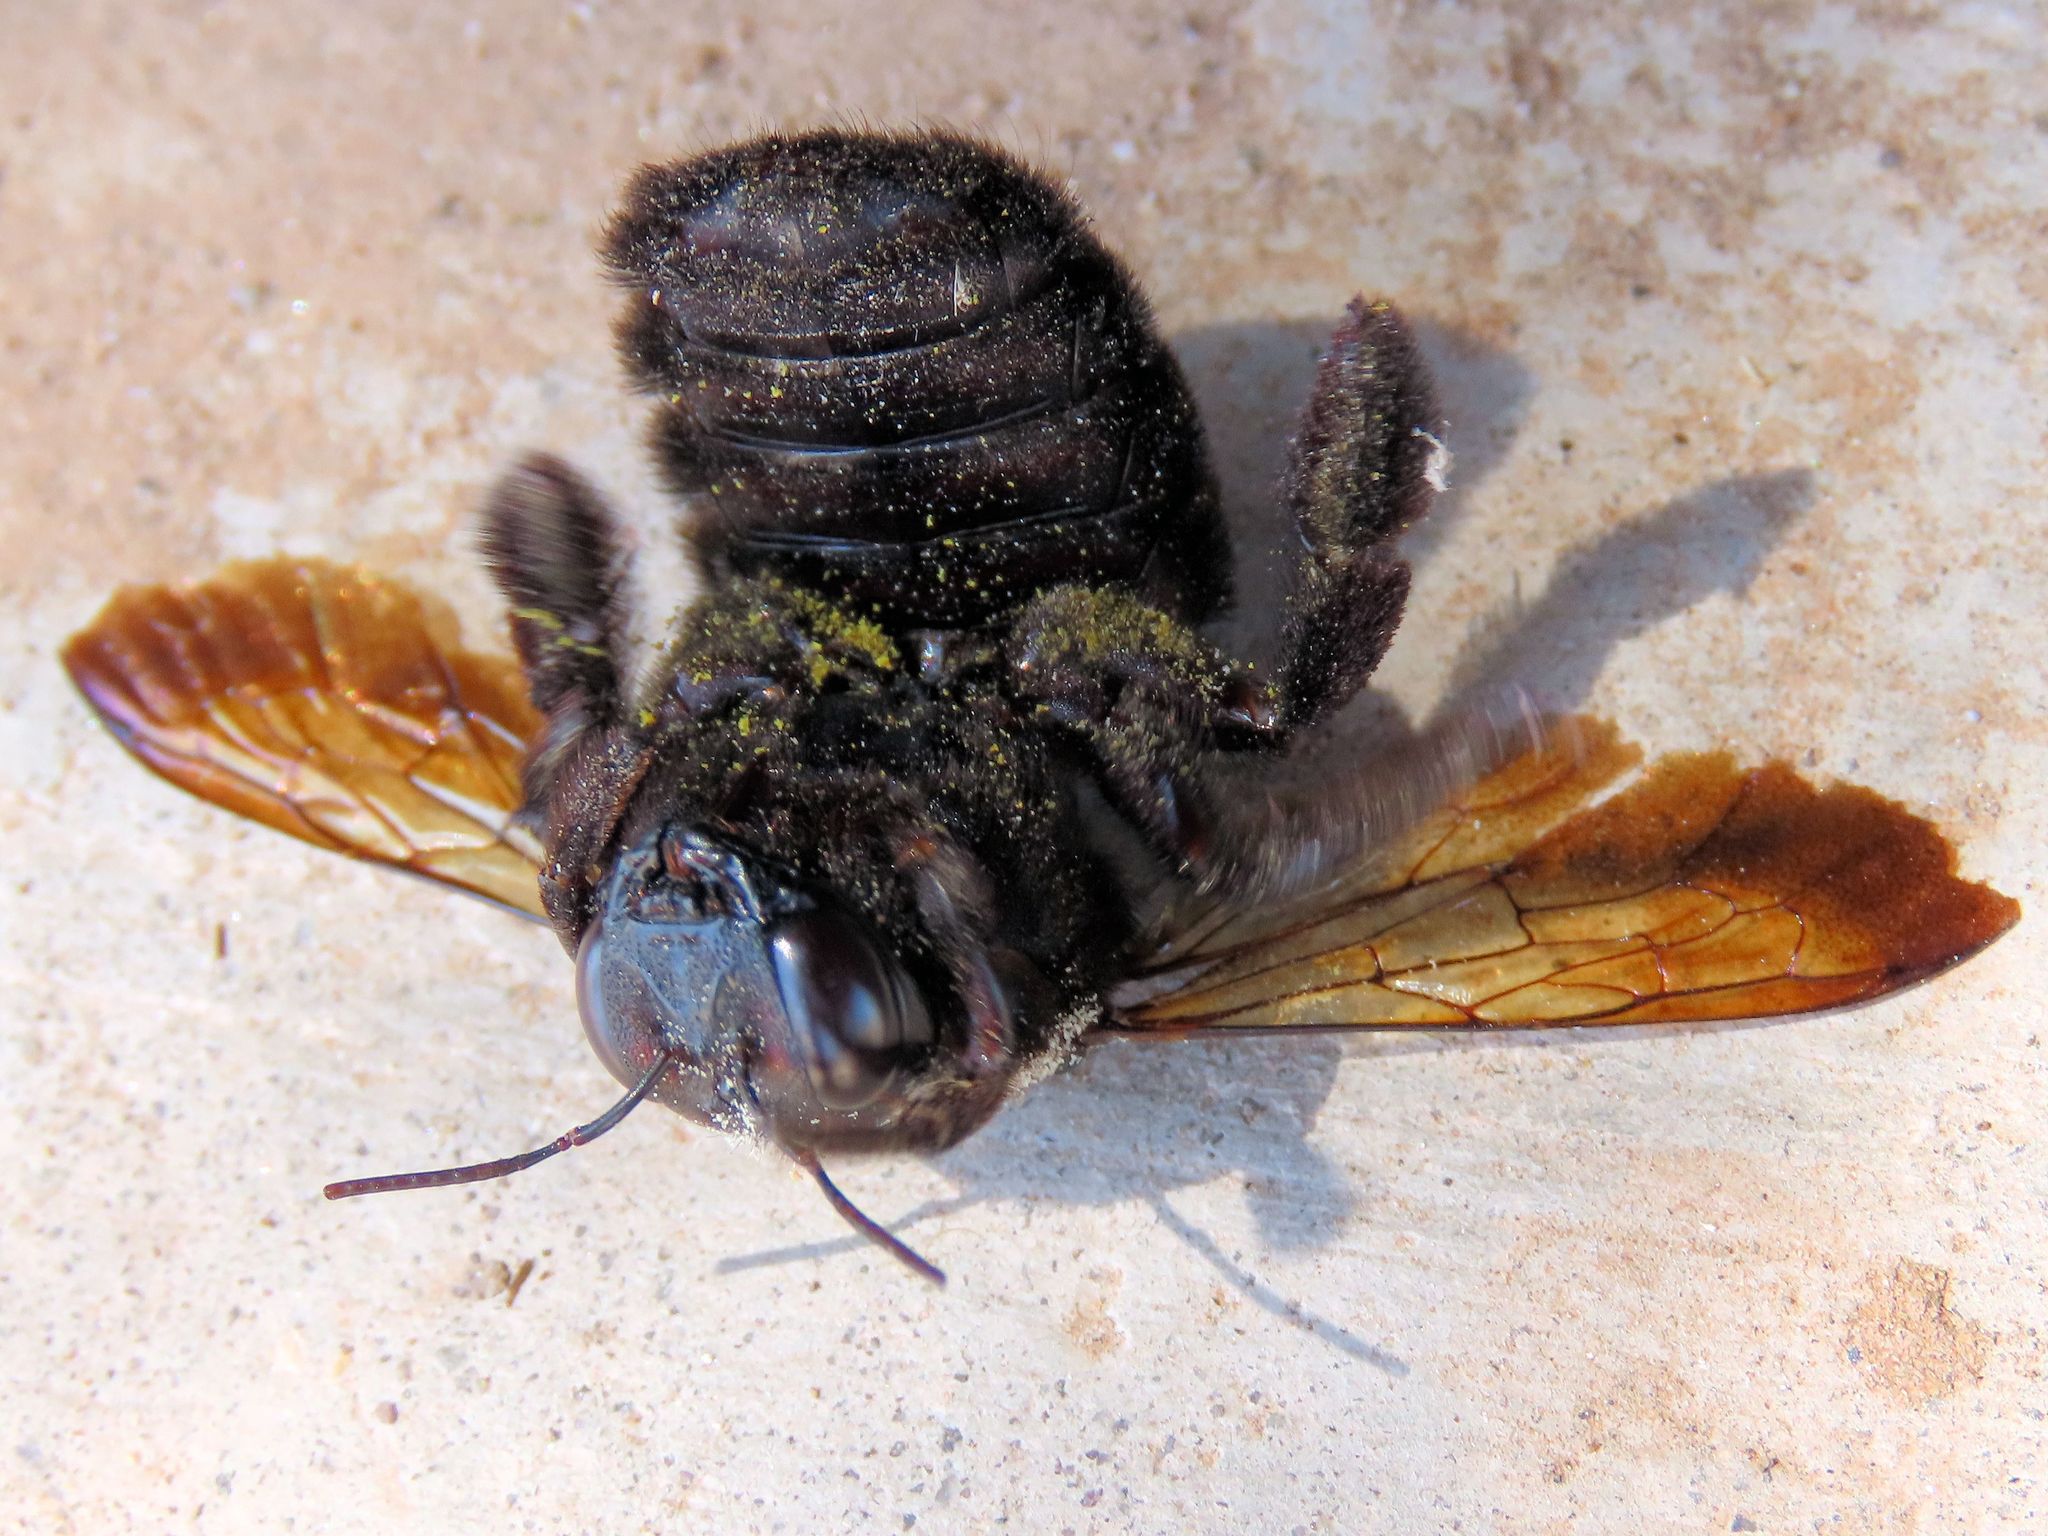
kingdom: Animalia
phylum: Arthropoda
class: Insecta
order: Hymenoptera
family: Apidae
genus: Xylocopa
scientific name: Xylocopa sonorina
